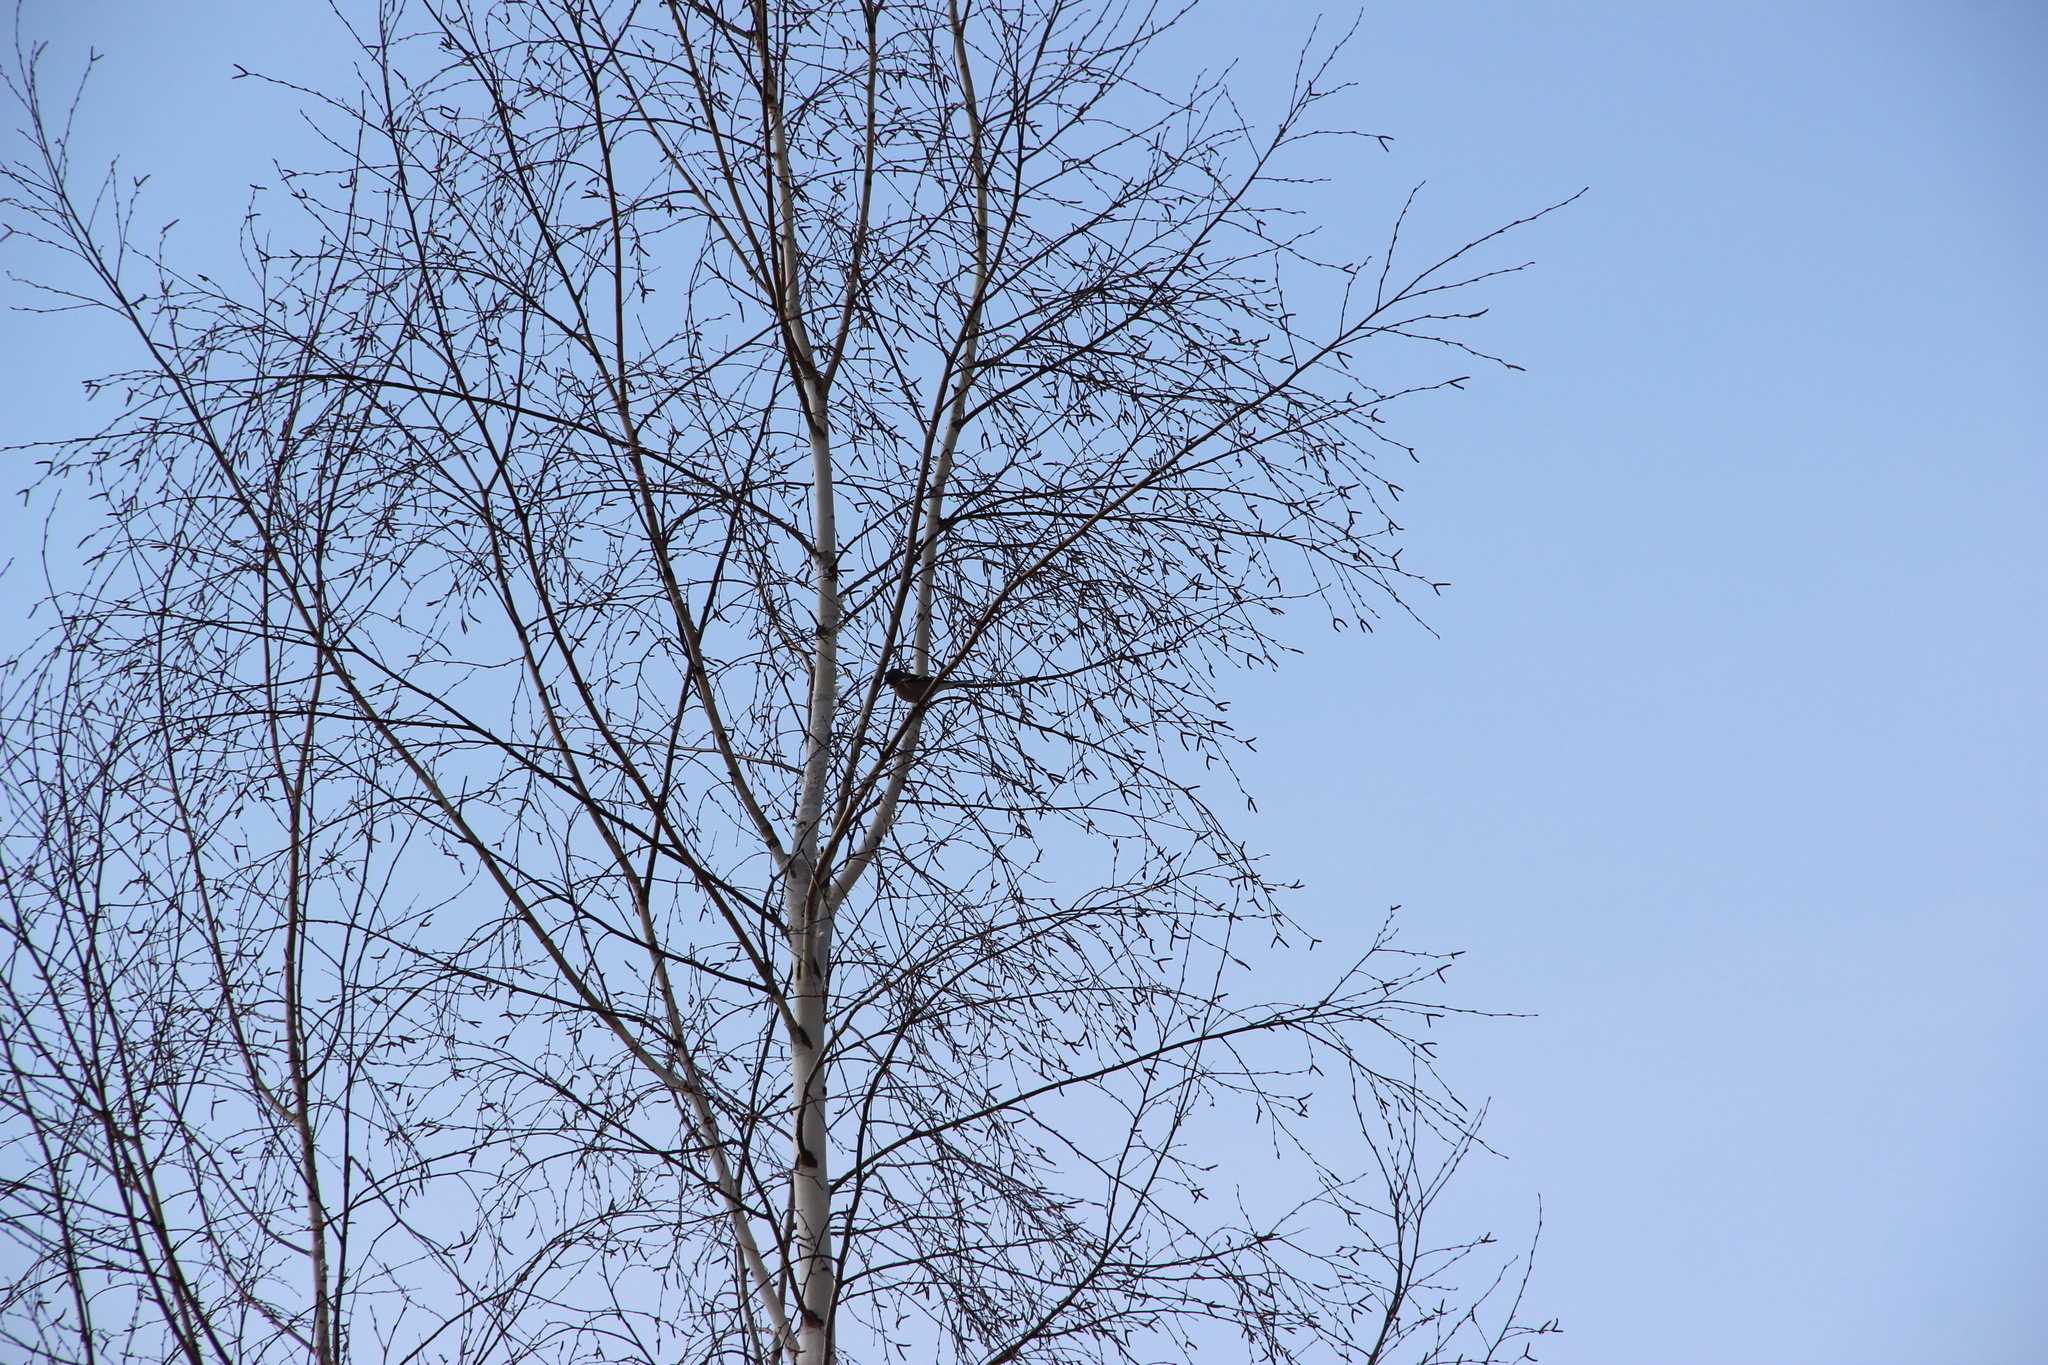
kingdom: Animalia
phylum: Chordata
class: Aves
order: Passeriformes
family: Fringillidae
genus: Fringilla
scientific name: Fringilla coelebs
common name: Common chaffinch
